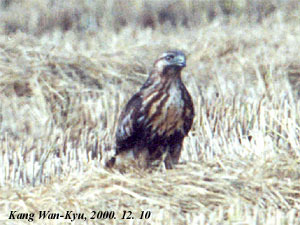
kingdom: Animalia
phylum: Chordata
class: Aves
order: Accipitriformes
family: Accipitridae
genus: Buteo
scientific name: Buteo japonicus
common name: Eastern buzzard
